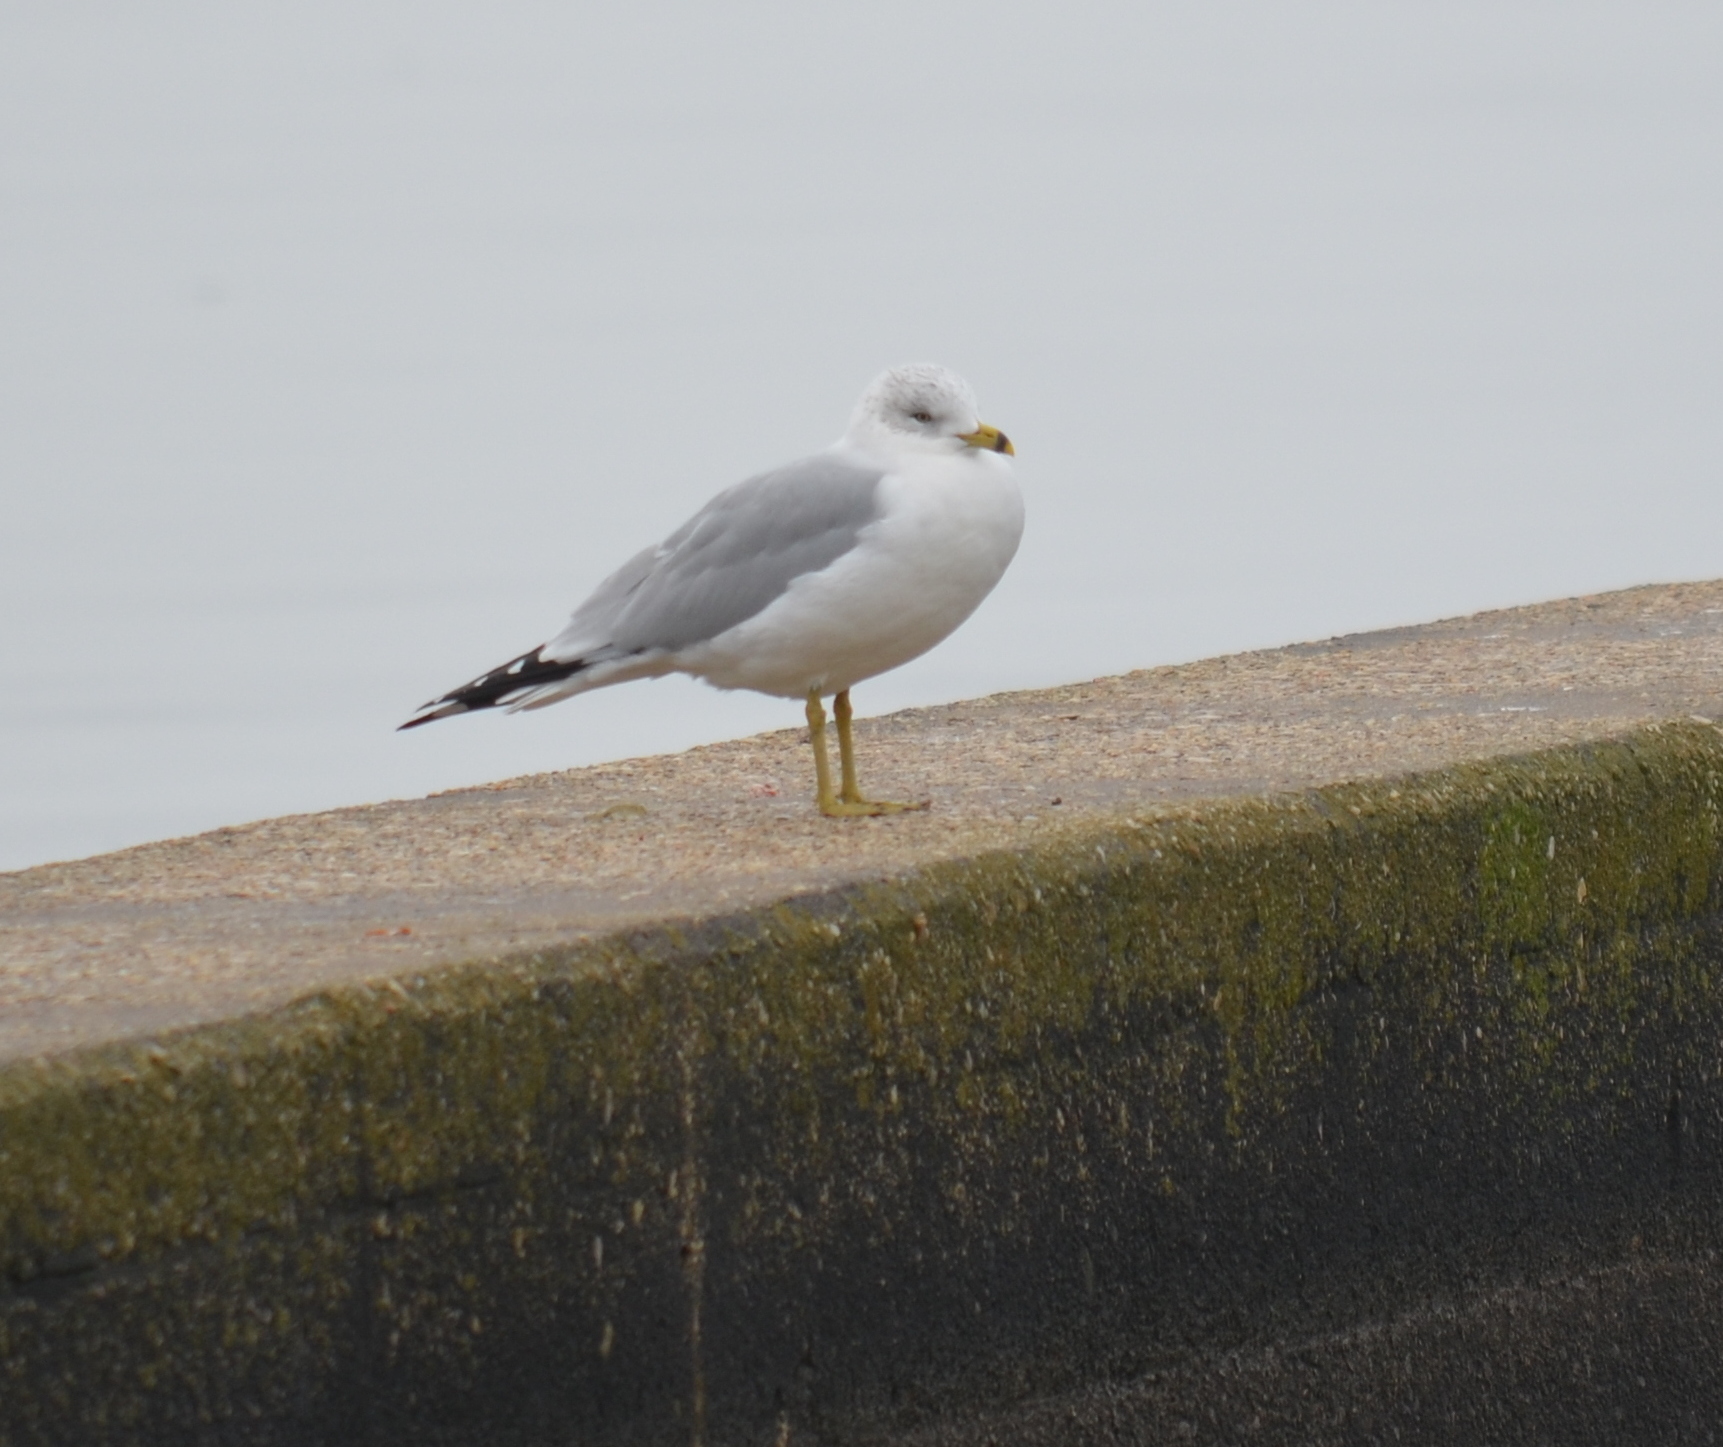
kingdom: Animalia
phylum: Chordata
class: Aves
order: Charadriiformes
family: Laridae
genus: Larus
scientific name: Larus delawarensis
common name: Ring-billed gull
